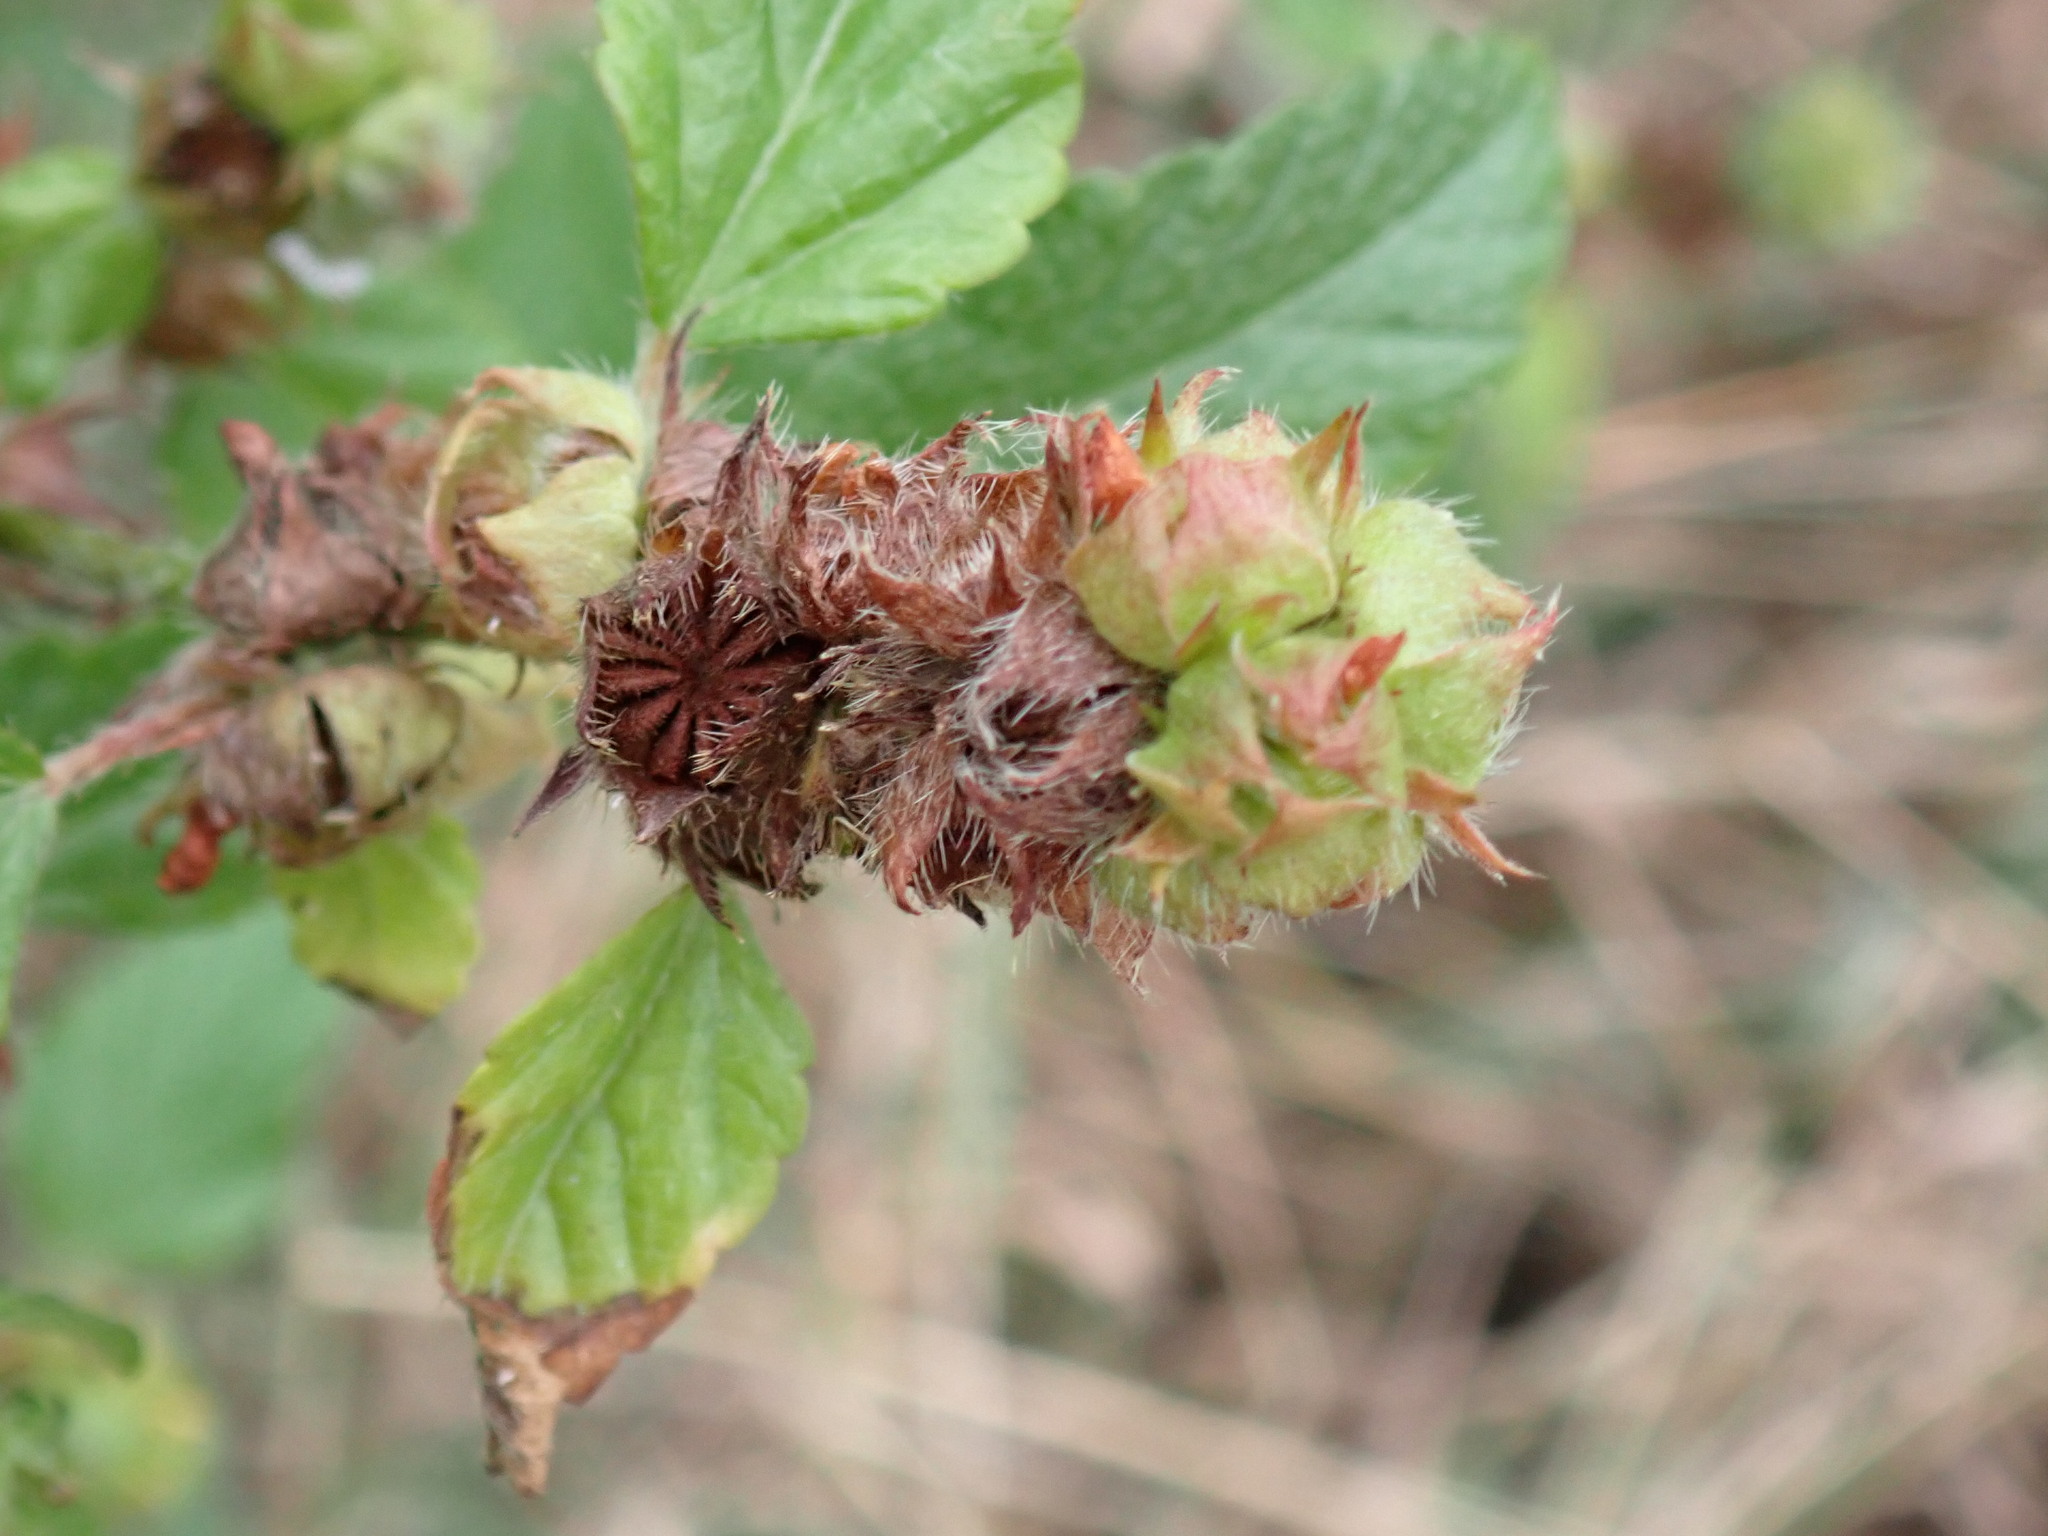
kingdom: Plantae
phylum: Tracheophyta
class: Magnoliopsida
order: Malvales
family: Malvaceae
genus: Malvastrum
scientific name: Malvastrum coromandelianum
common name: Threelobe false mallow
